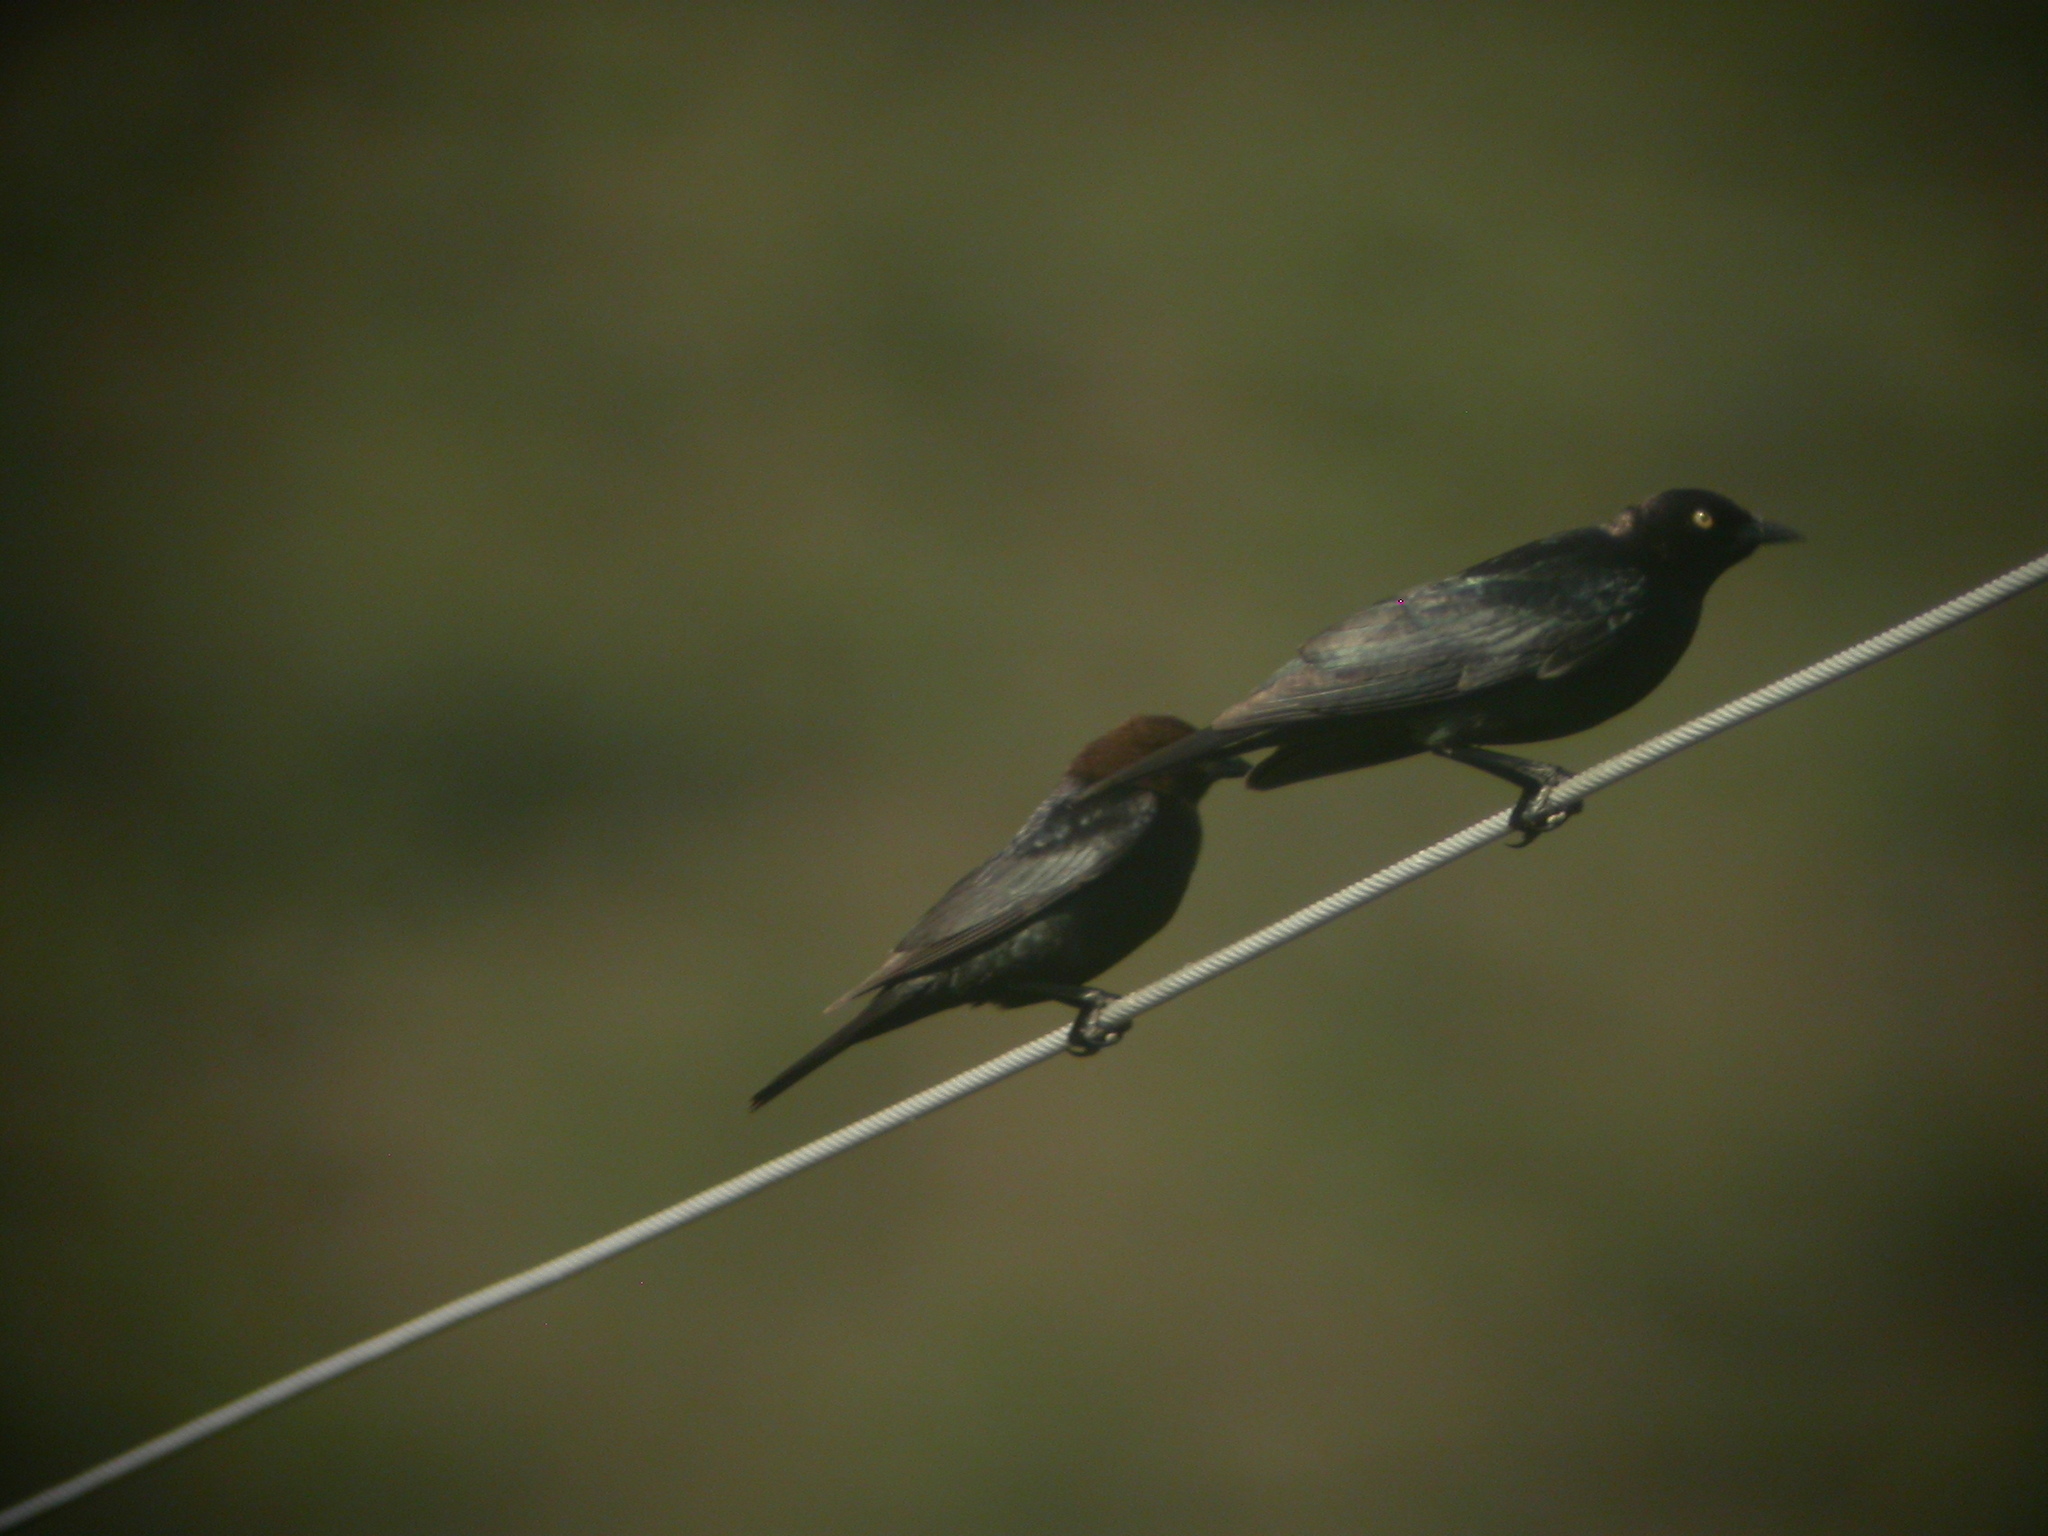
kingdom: Animalia
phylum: Chordata
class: Aves
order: Passeriformes
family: Icteridae
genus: Euphagus
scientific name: Euphagus cyanocephalus
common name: Brewer's blackbird
